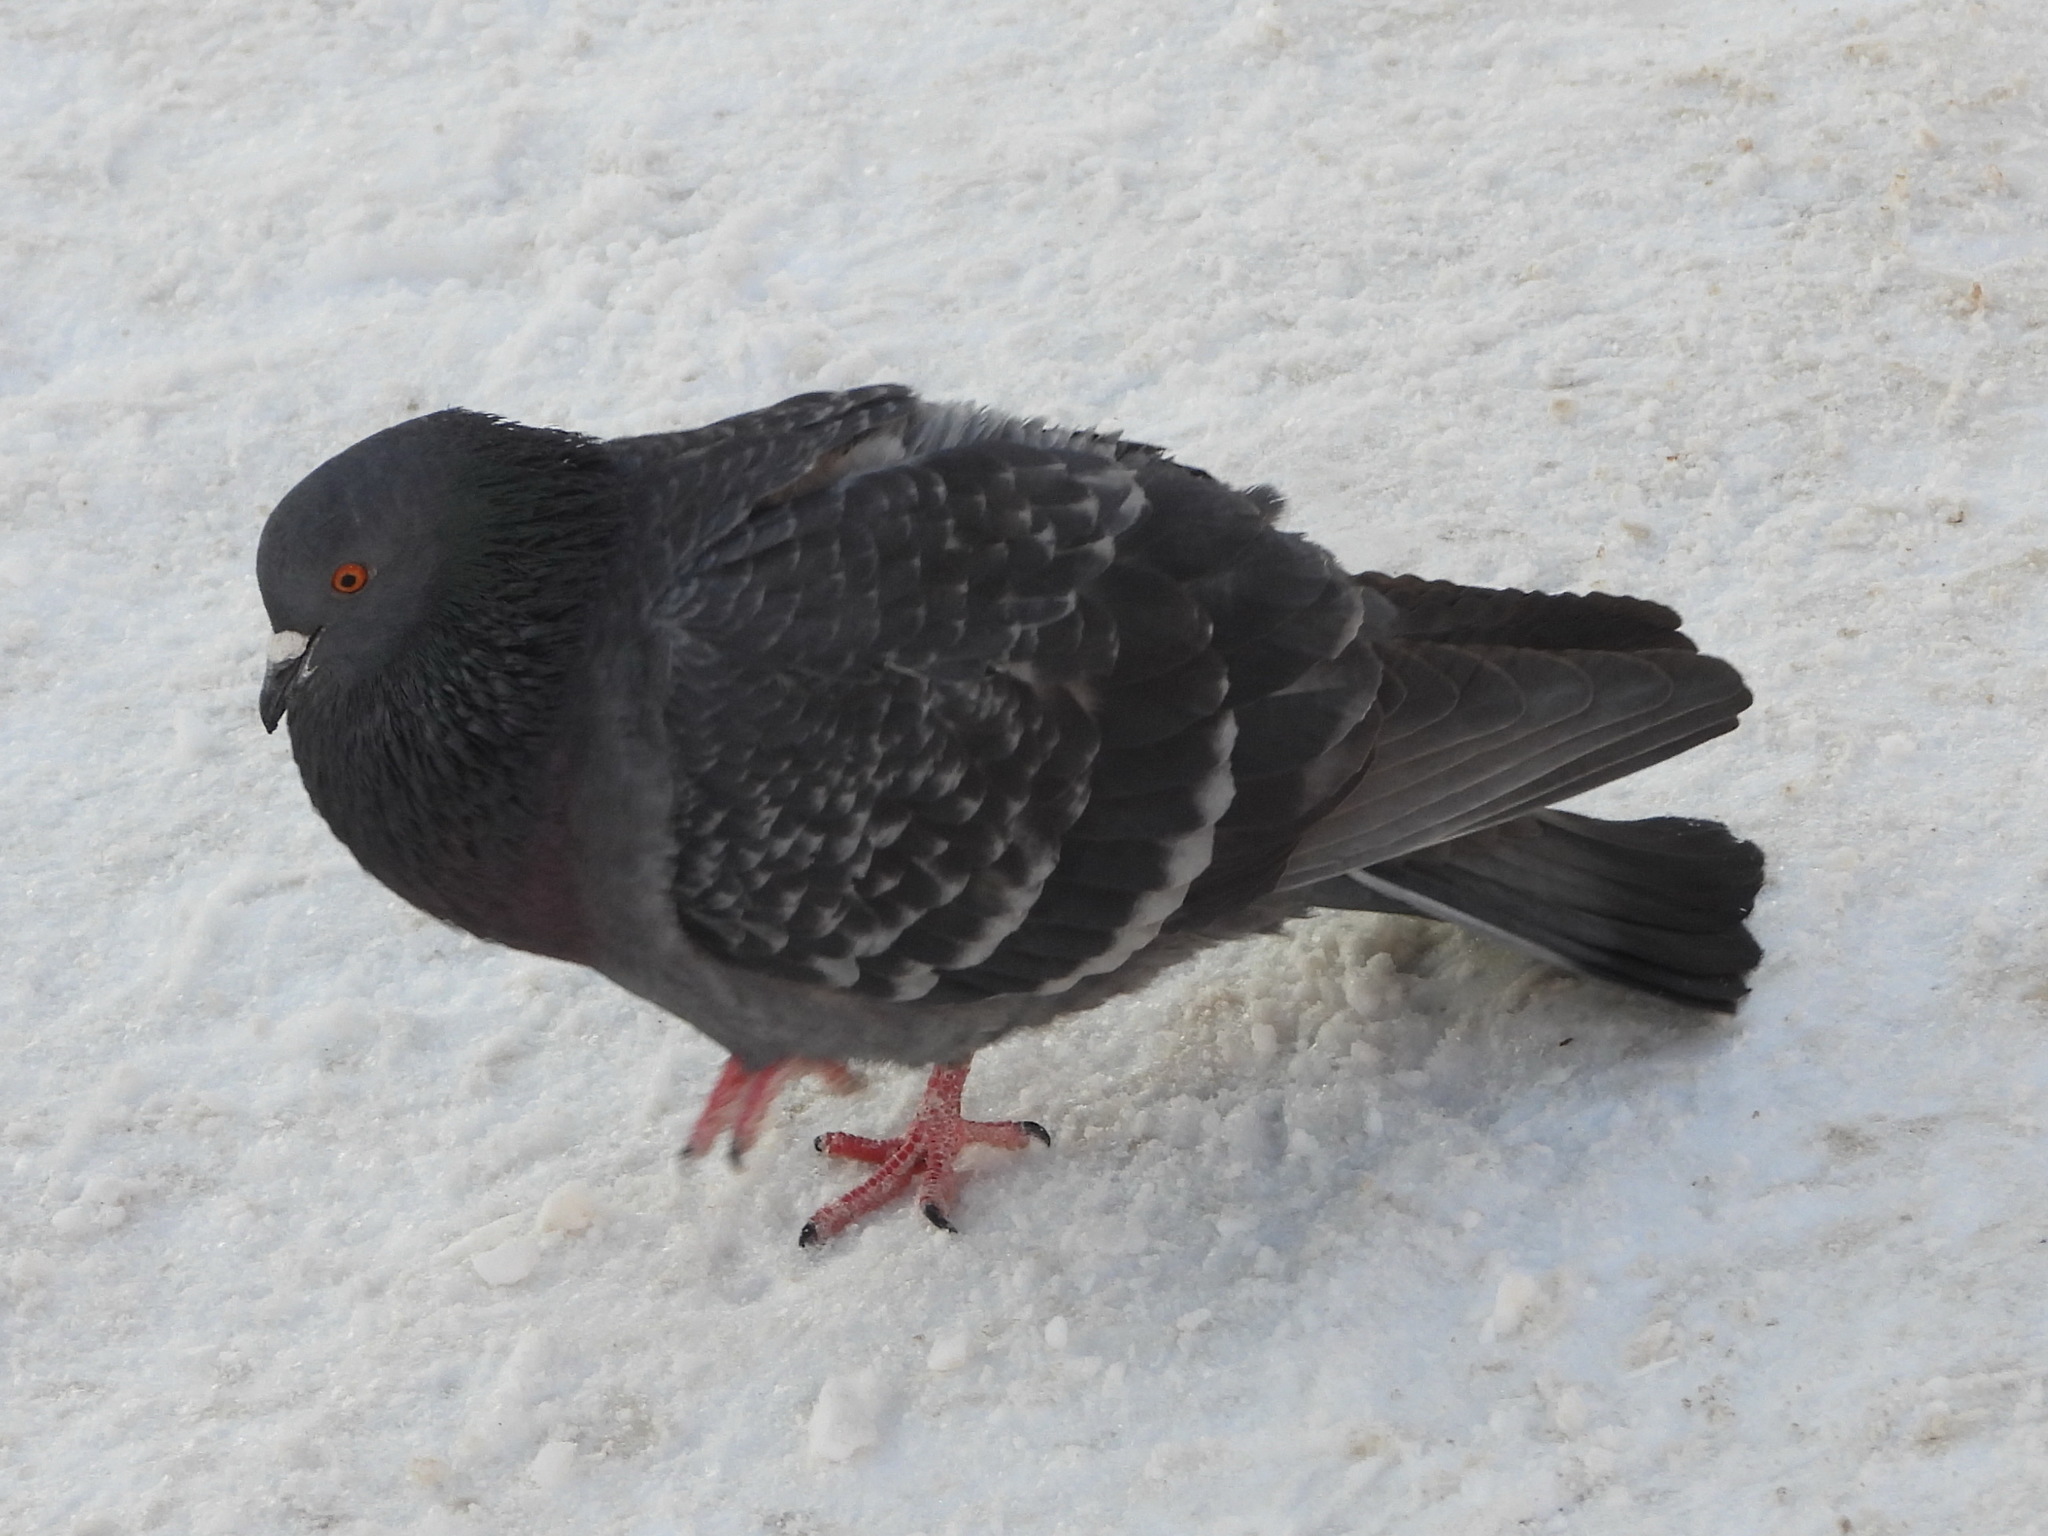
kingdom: Animalia
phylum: Chordata
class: Aves
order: Columbiformes
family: Columbidae
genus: Columba
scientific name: Columba livia
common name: Rock pigeon
